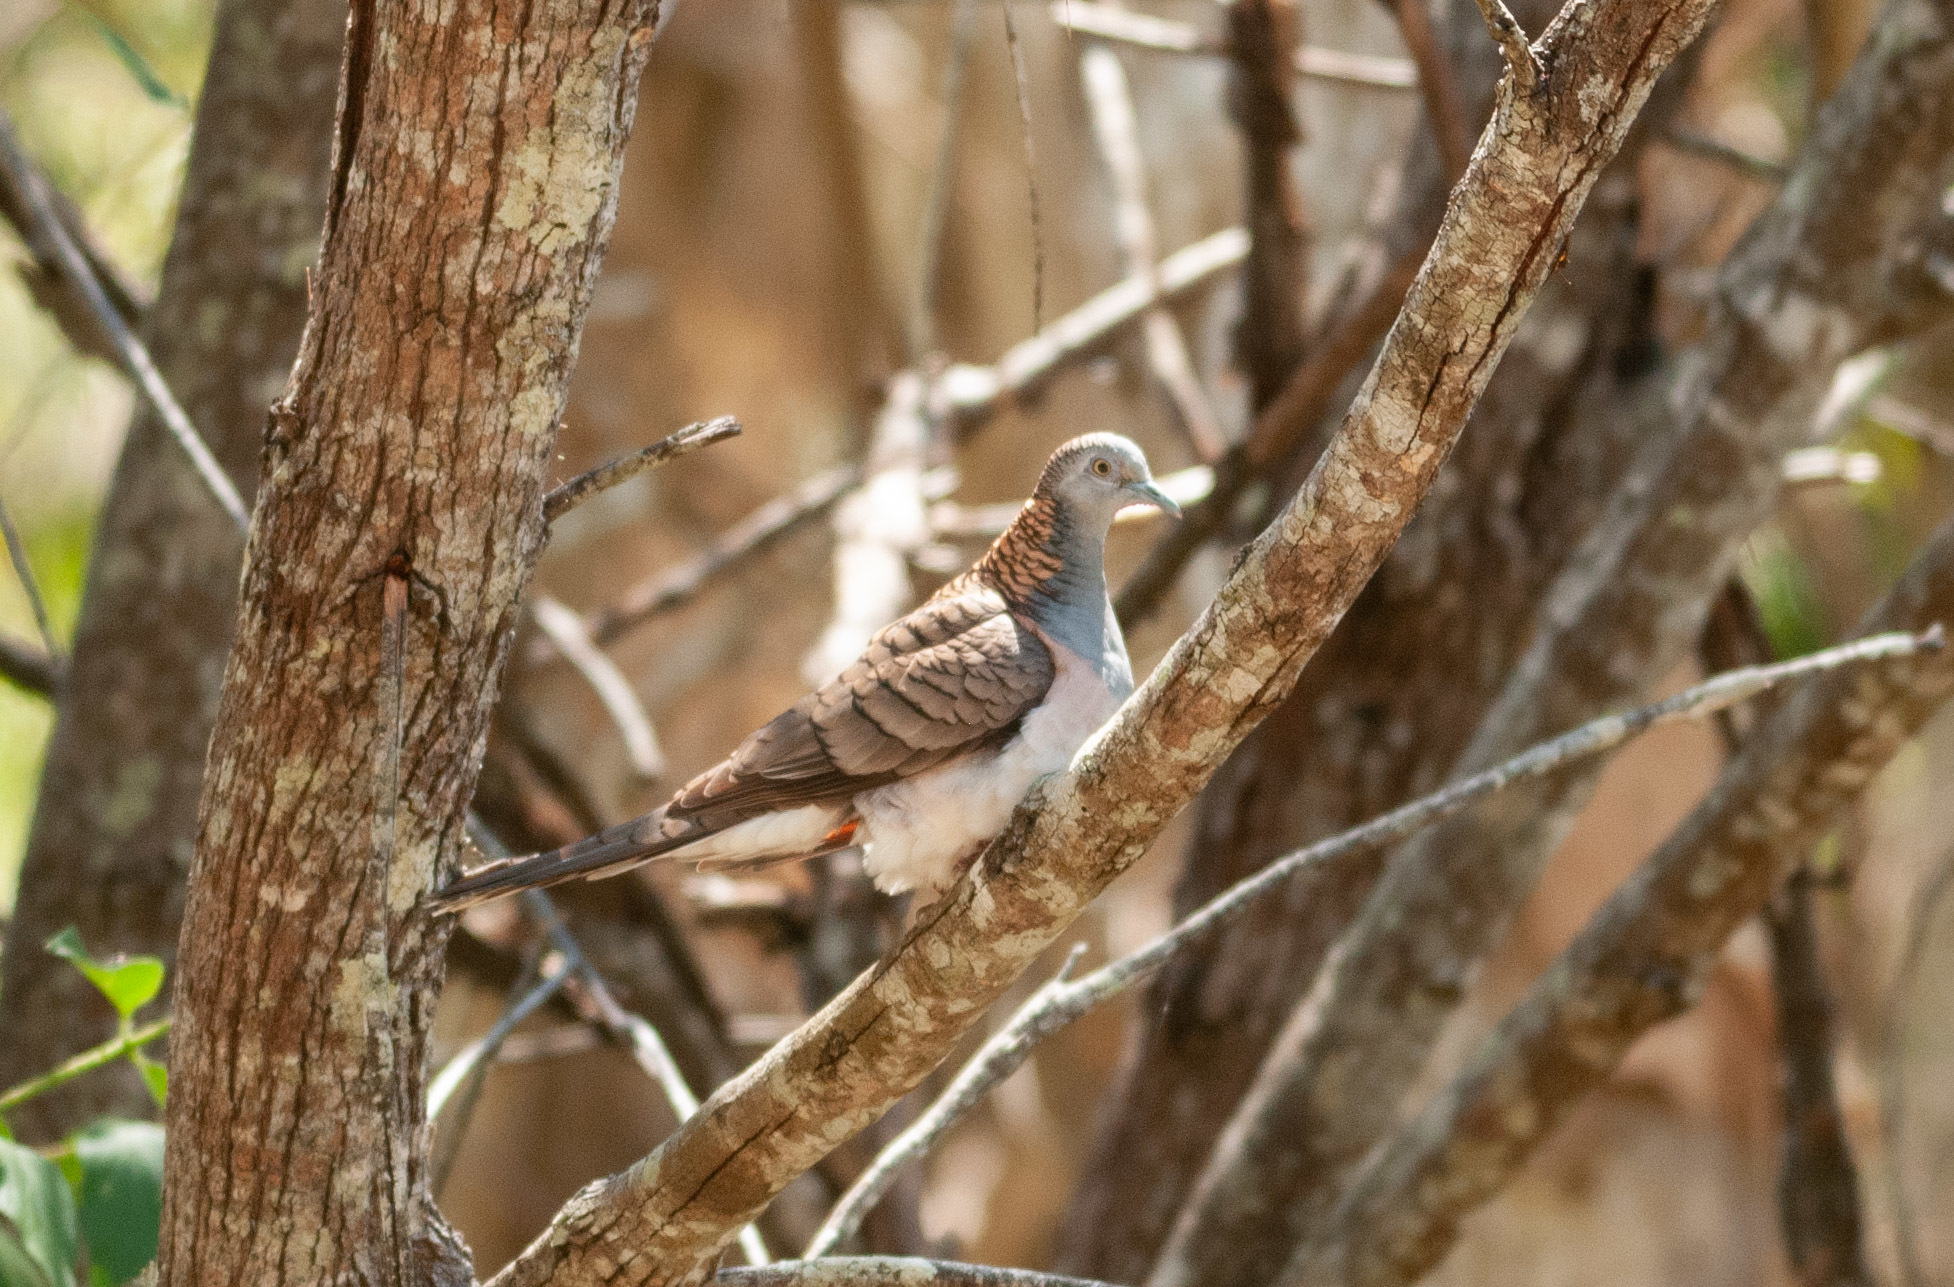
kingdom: Animalia
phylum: Chordata
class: Aves
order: Columbiformes
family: Columbidae
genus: Geopelia
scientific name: Geopelia humeralis
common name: Bar-shouldered dove
